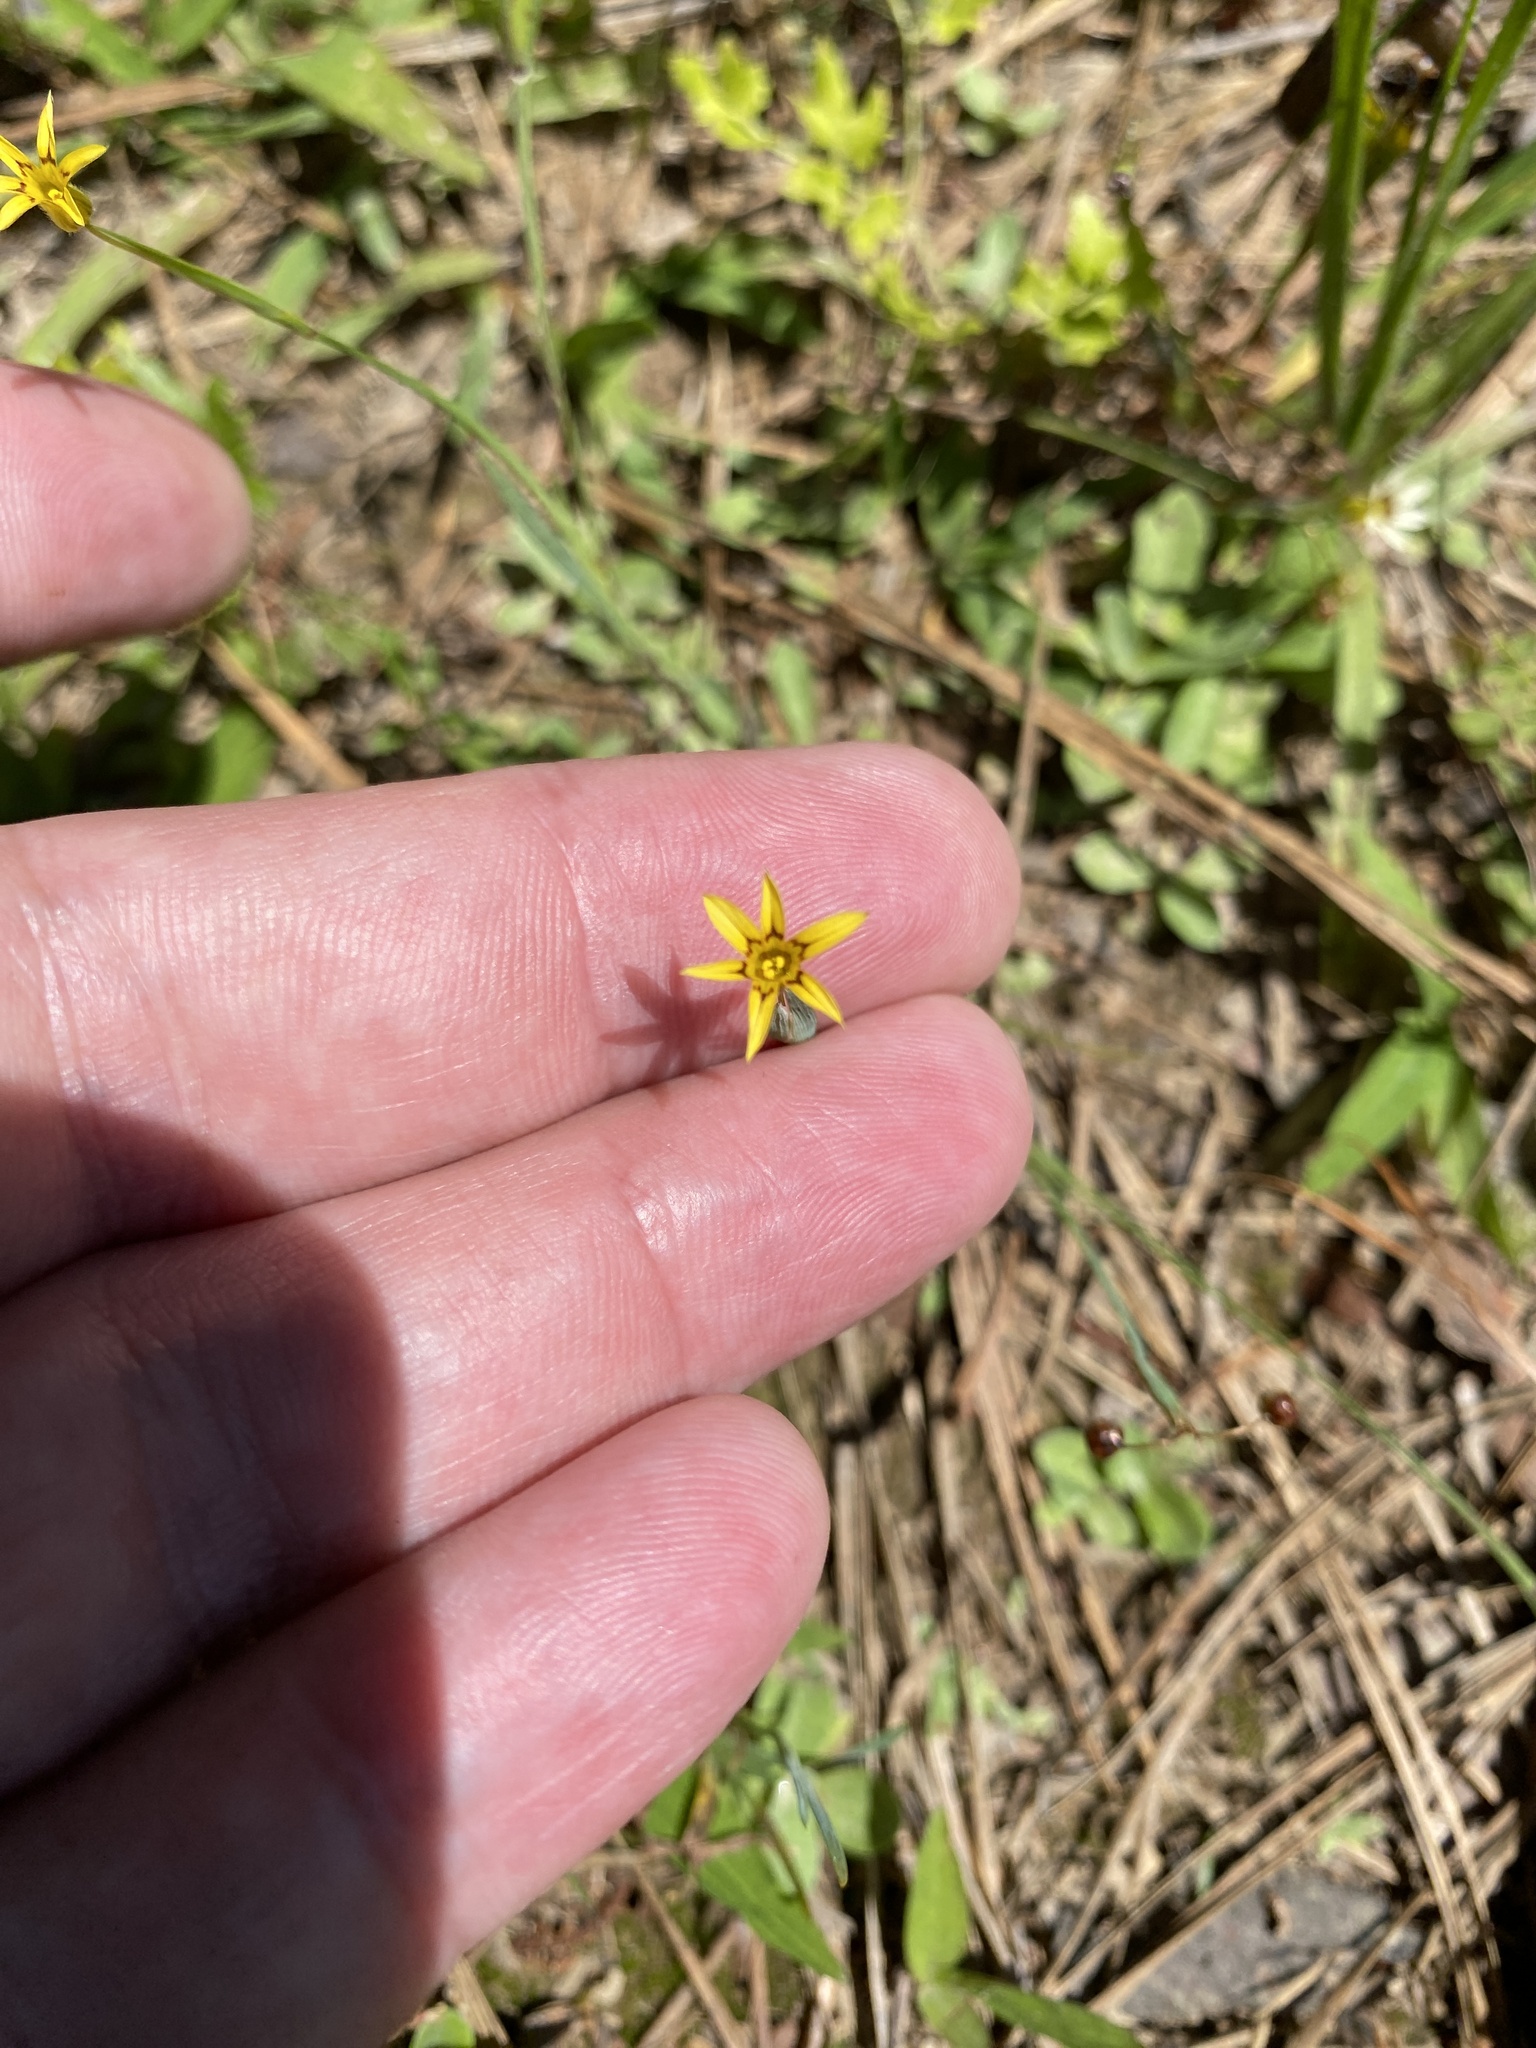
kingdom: Plantae
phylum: Tracheophyta
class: Liliopsida
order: Asparagales
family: Iridaceae
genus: Sisyrinchium
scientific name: Sisyrinchium micranthum
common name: Bermuda pigroot
